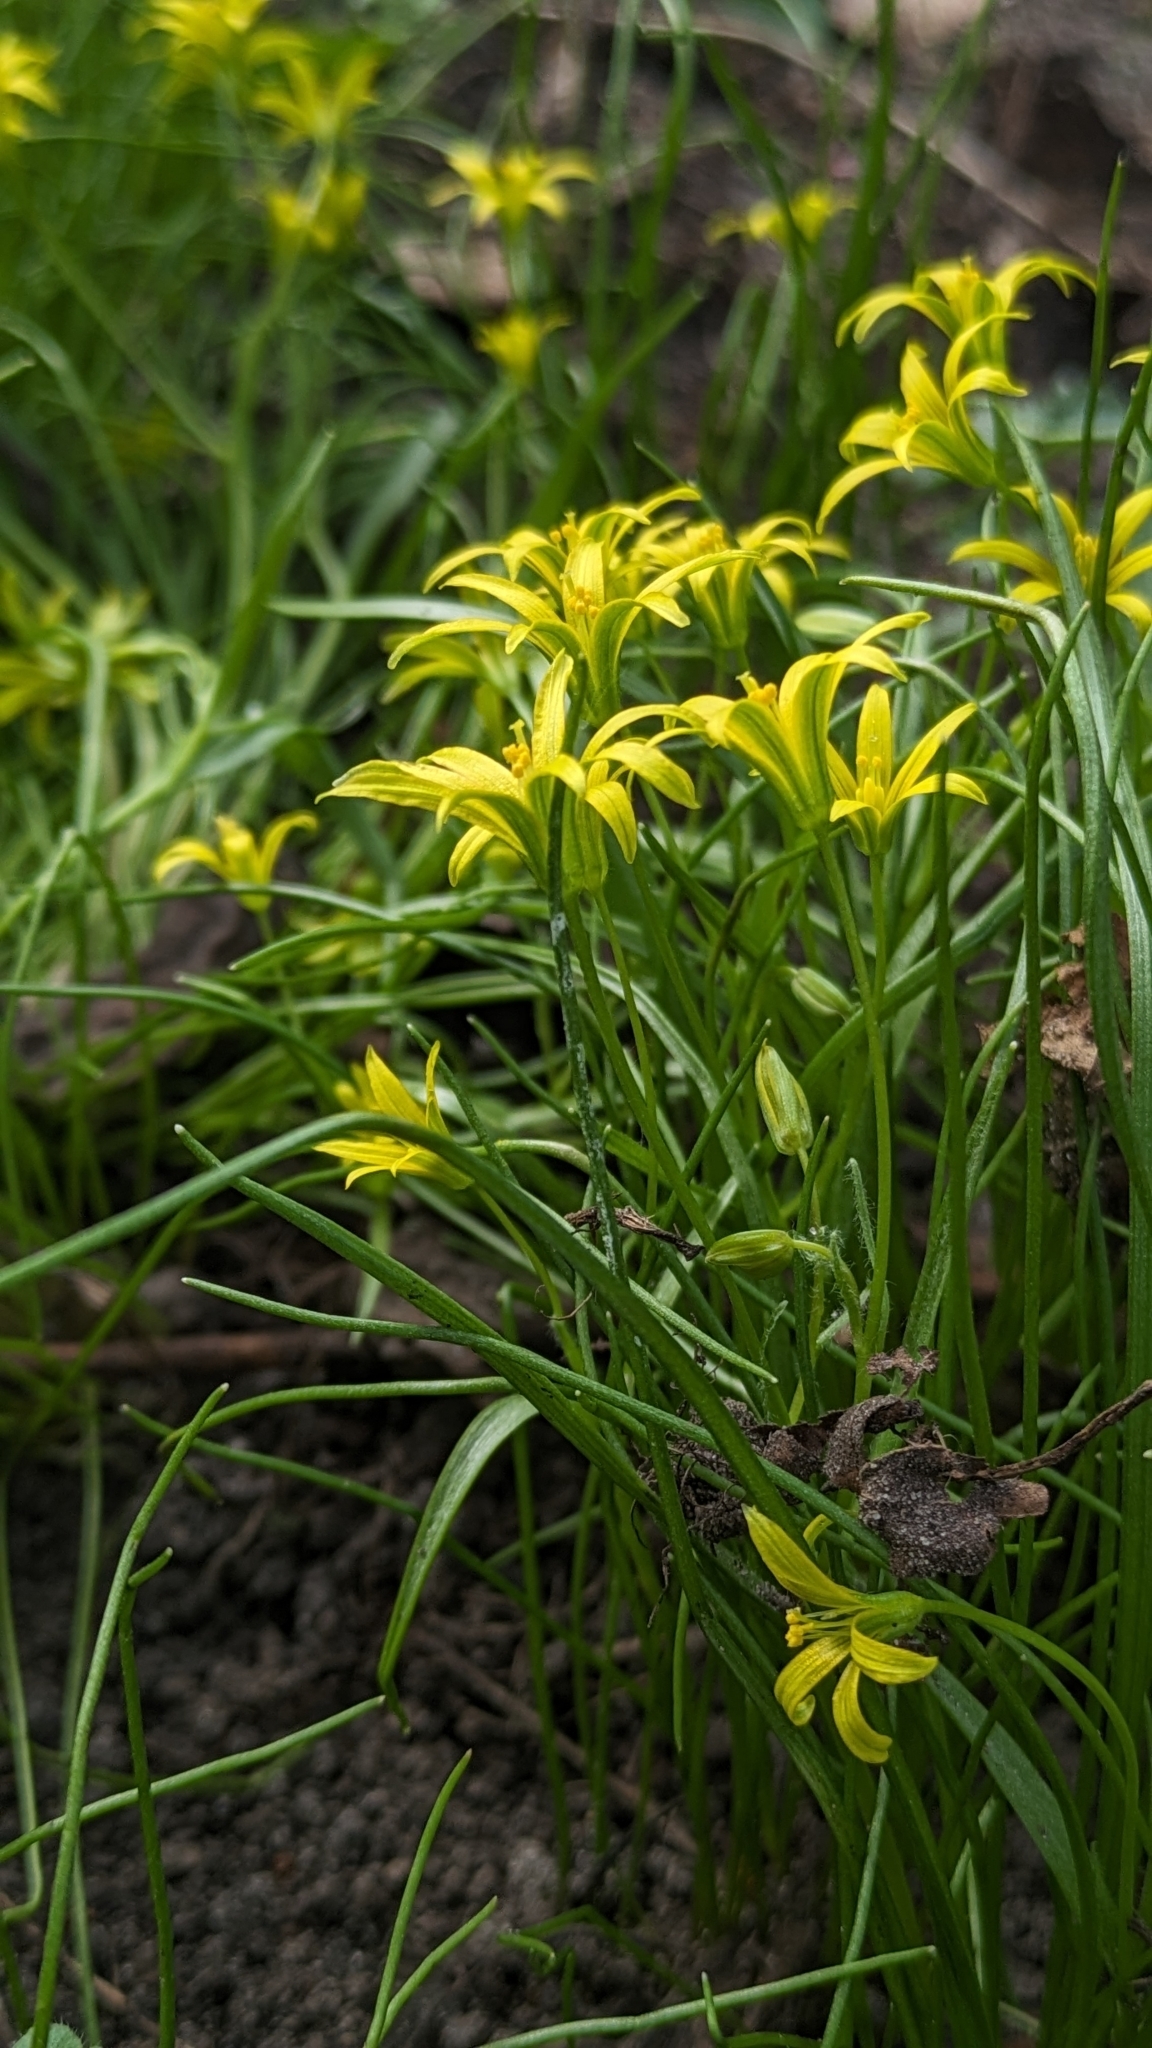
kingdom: Plantae
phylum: Tracheophyta
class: Liliopsida
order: Liliales
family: Liliaceae
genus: Gagea
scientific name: Gagea minima
